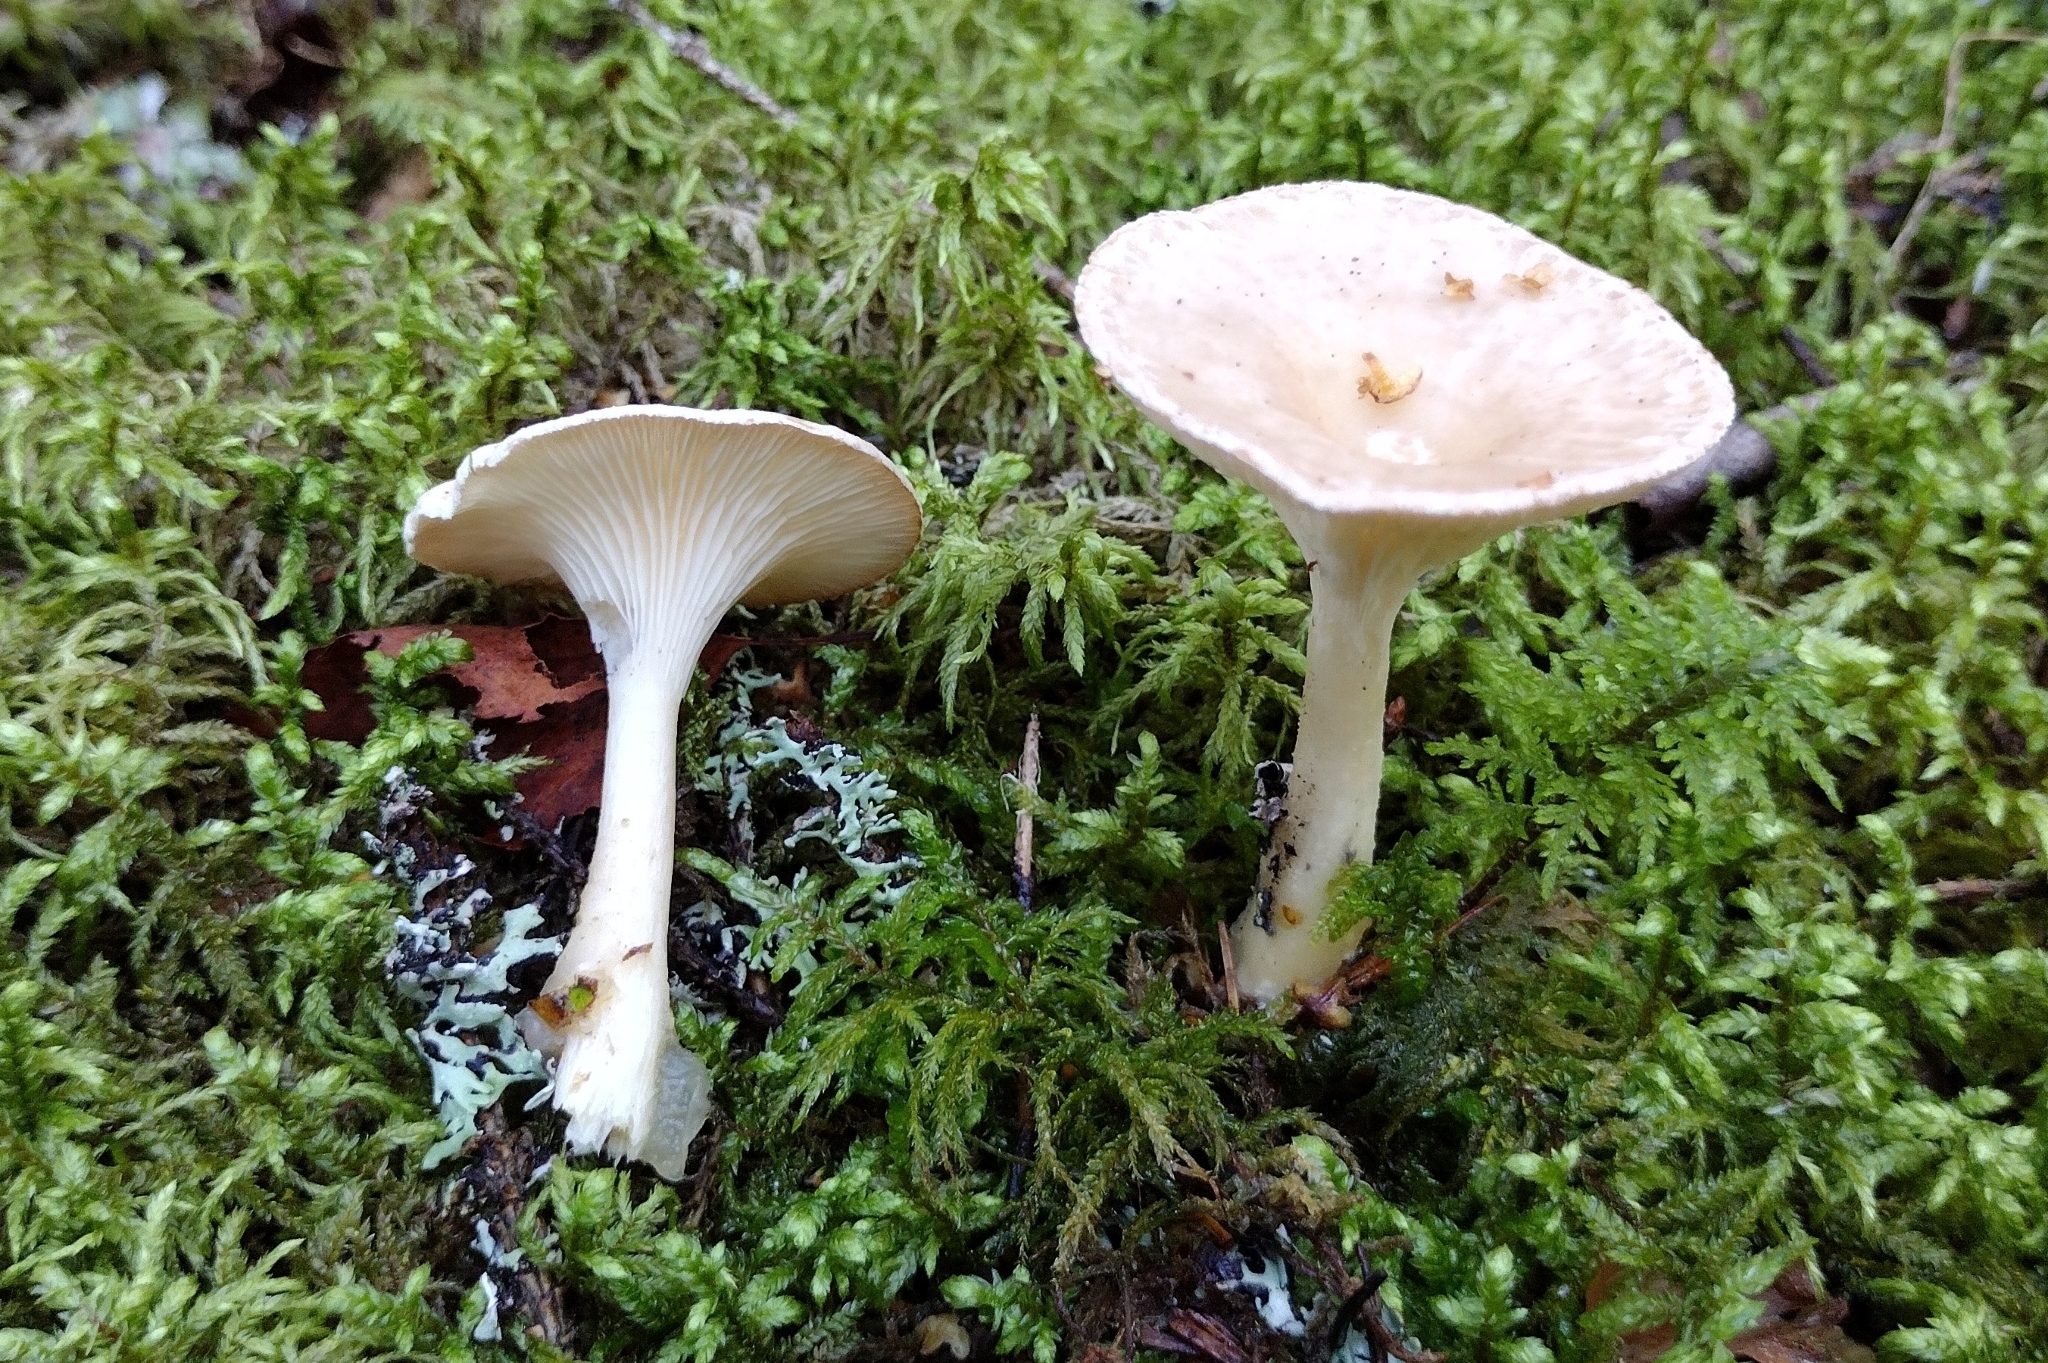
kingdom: Fungi
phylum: Basidiomycota
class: Agaricomycetes
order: Agaricales
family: Hygrophoraceae
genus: Ampulloclitocybe
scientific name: Ampulloclitocybe clavipes
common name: Club foot
